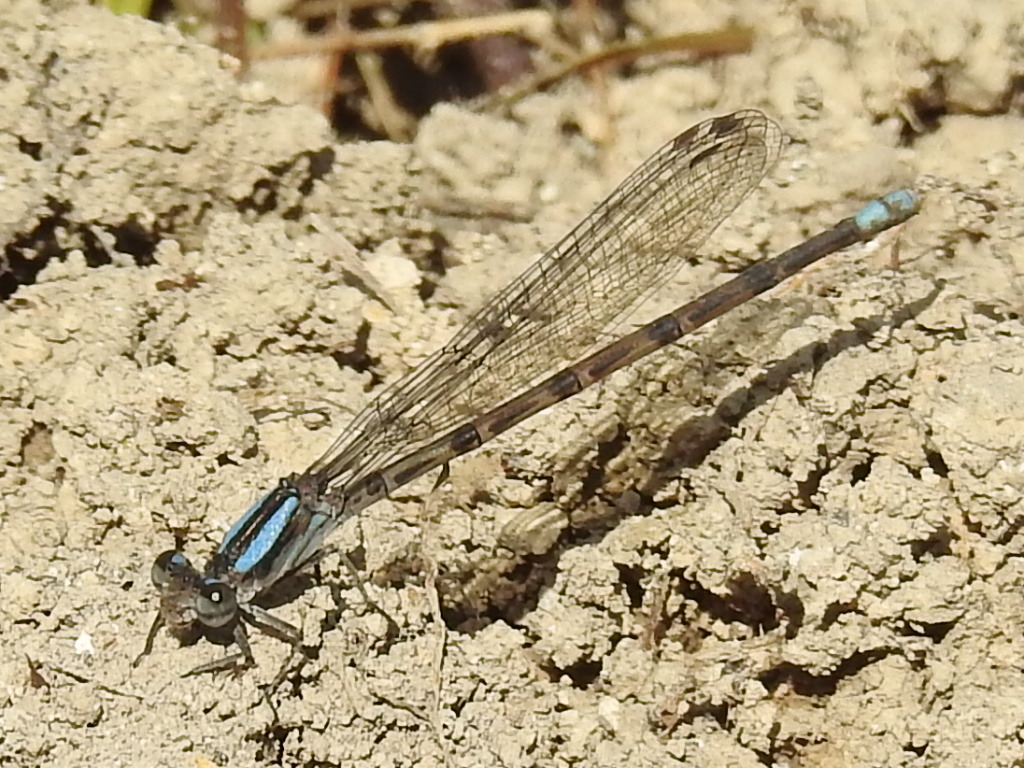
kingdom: Animalia
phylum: Arthropoda
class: Insecta
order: Odonata
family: Coenagrionidae
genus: Argia
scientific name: Argia immunda
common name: Kiowa dancer
